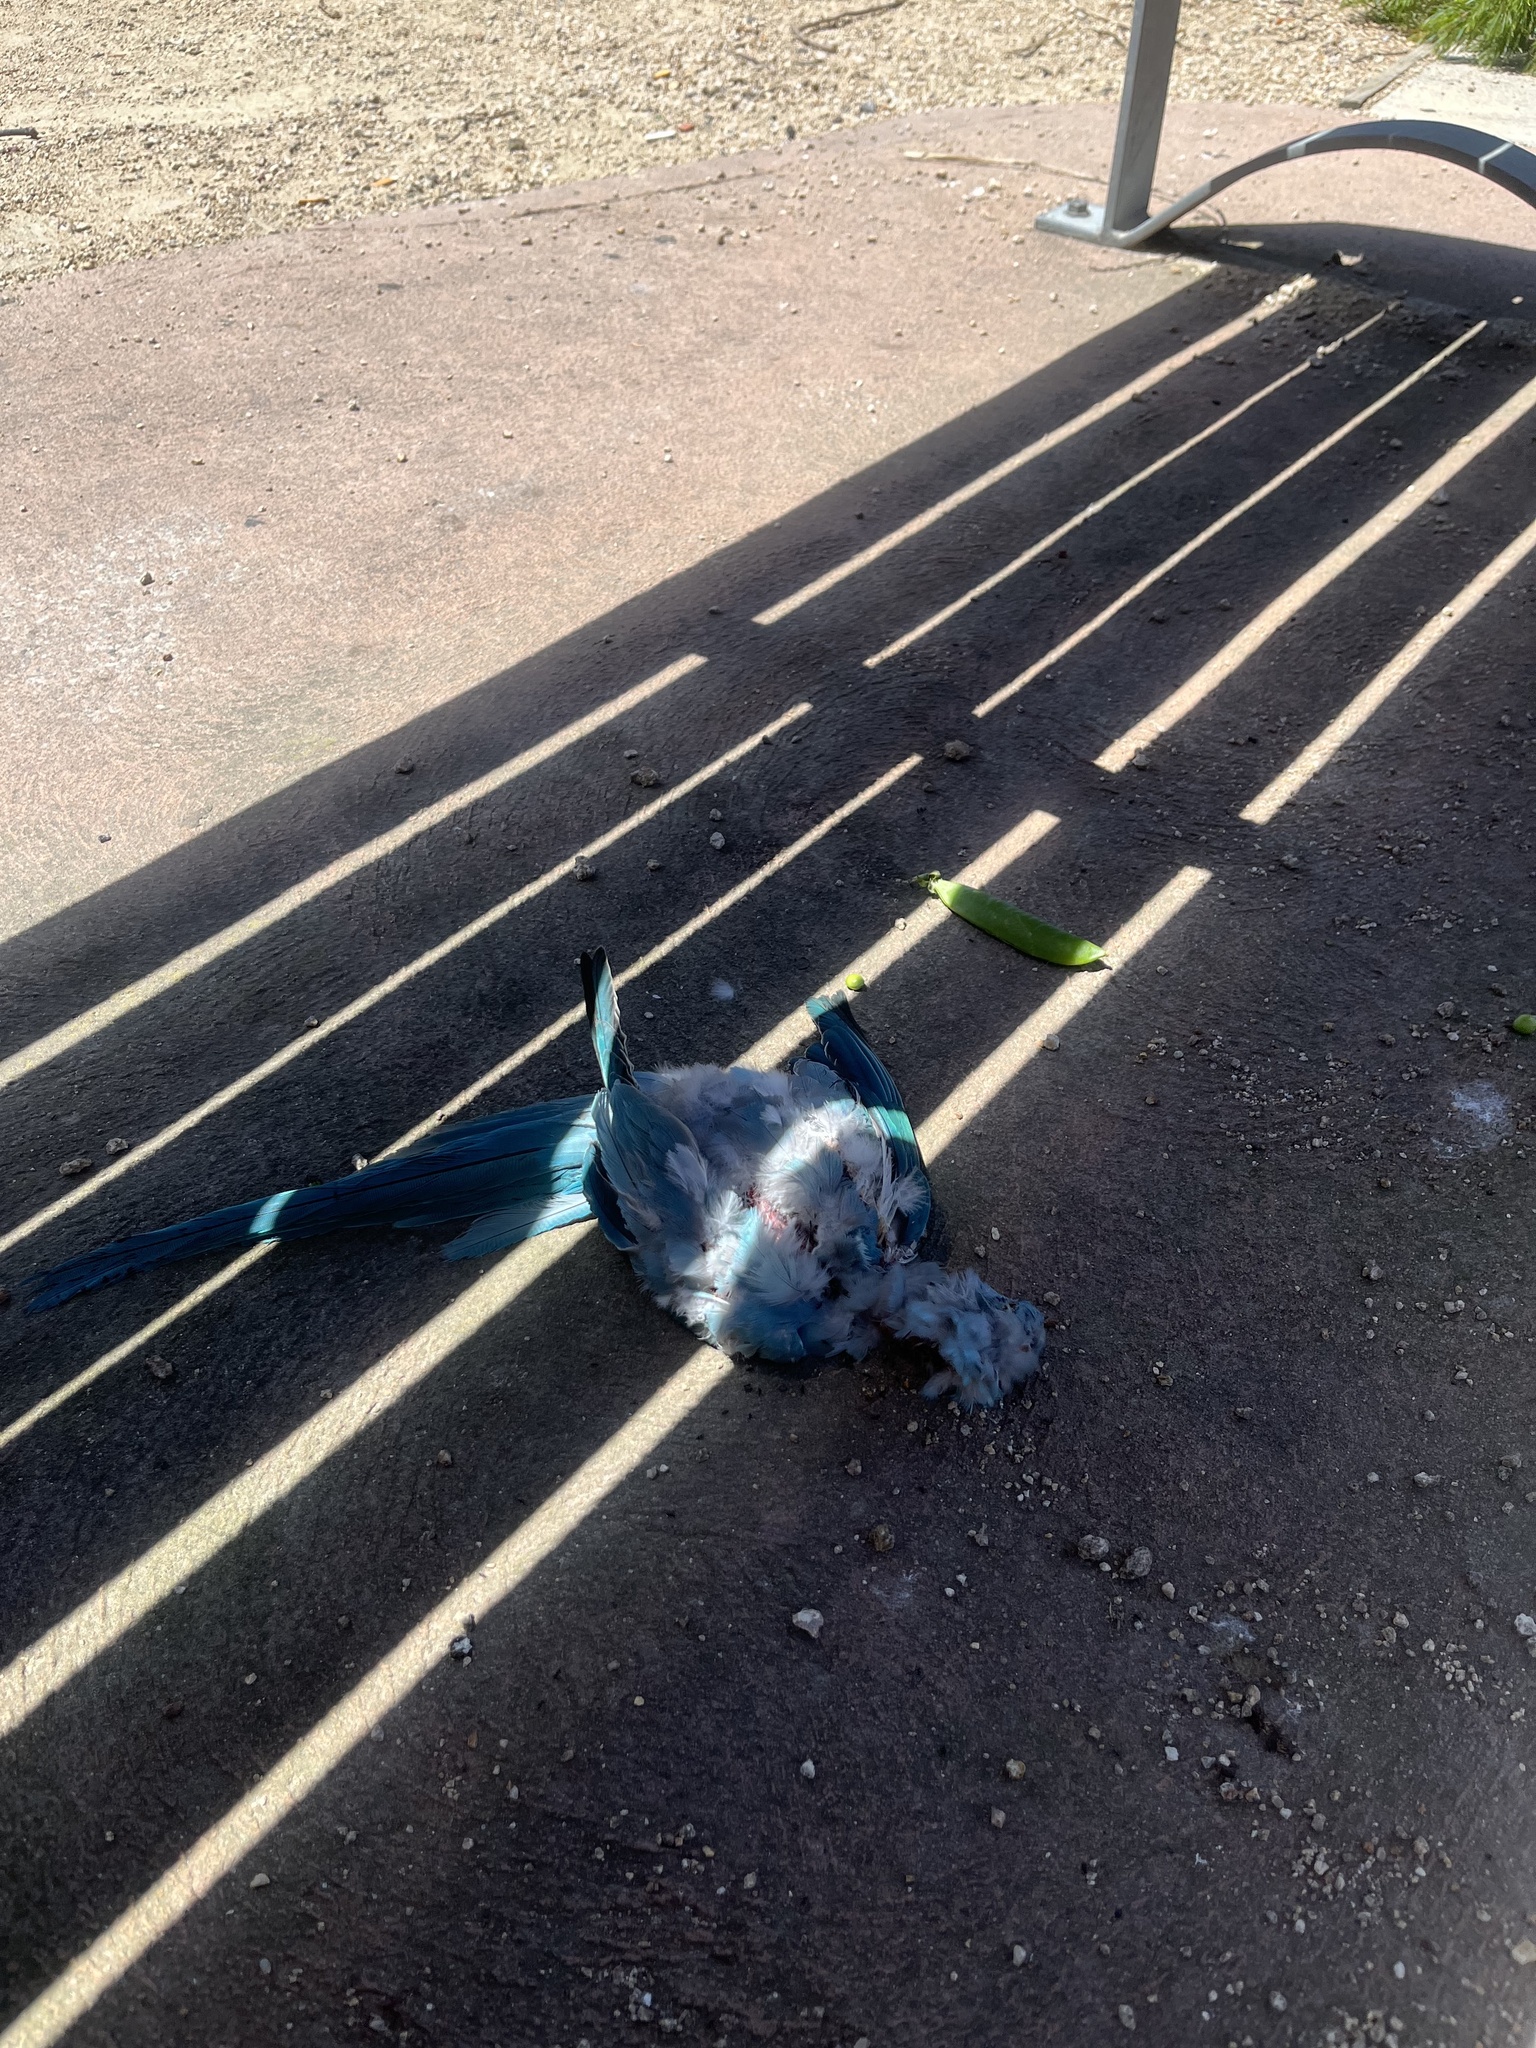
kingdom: Animalia
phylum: Chordata
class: Aves
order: Psittaciformes
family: Psittacidae
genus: Psittacula
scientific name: Psittacula krameri
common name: Rose-ringed parakeet
